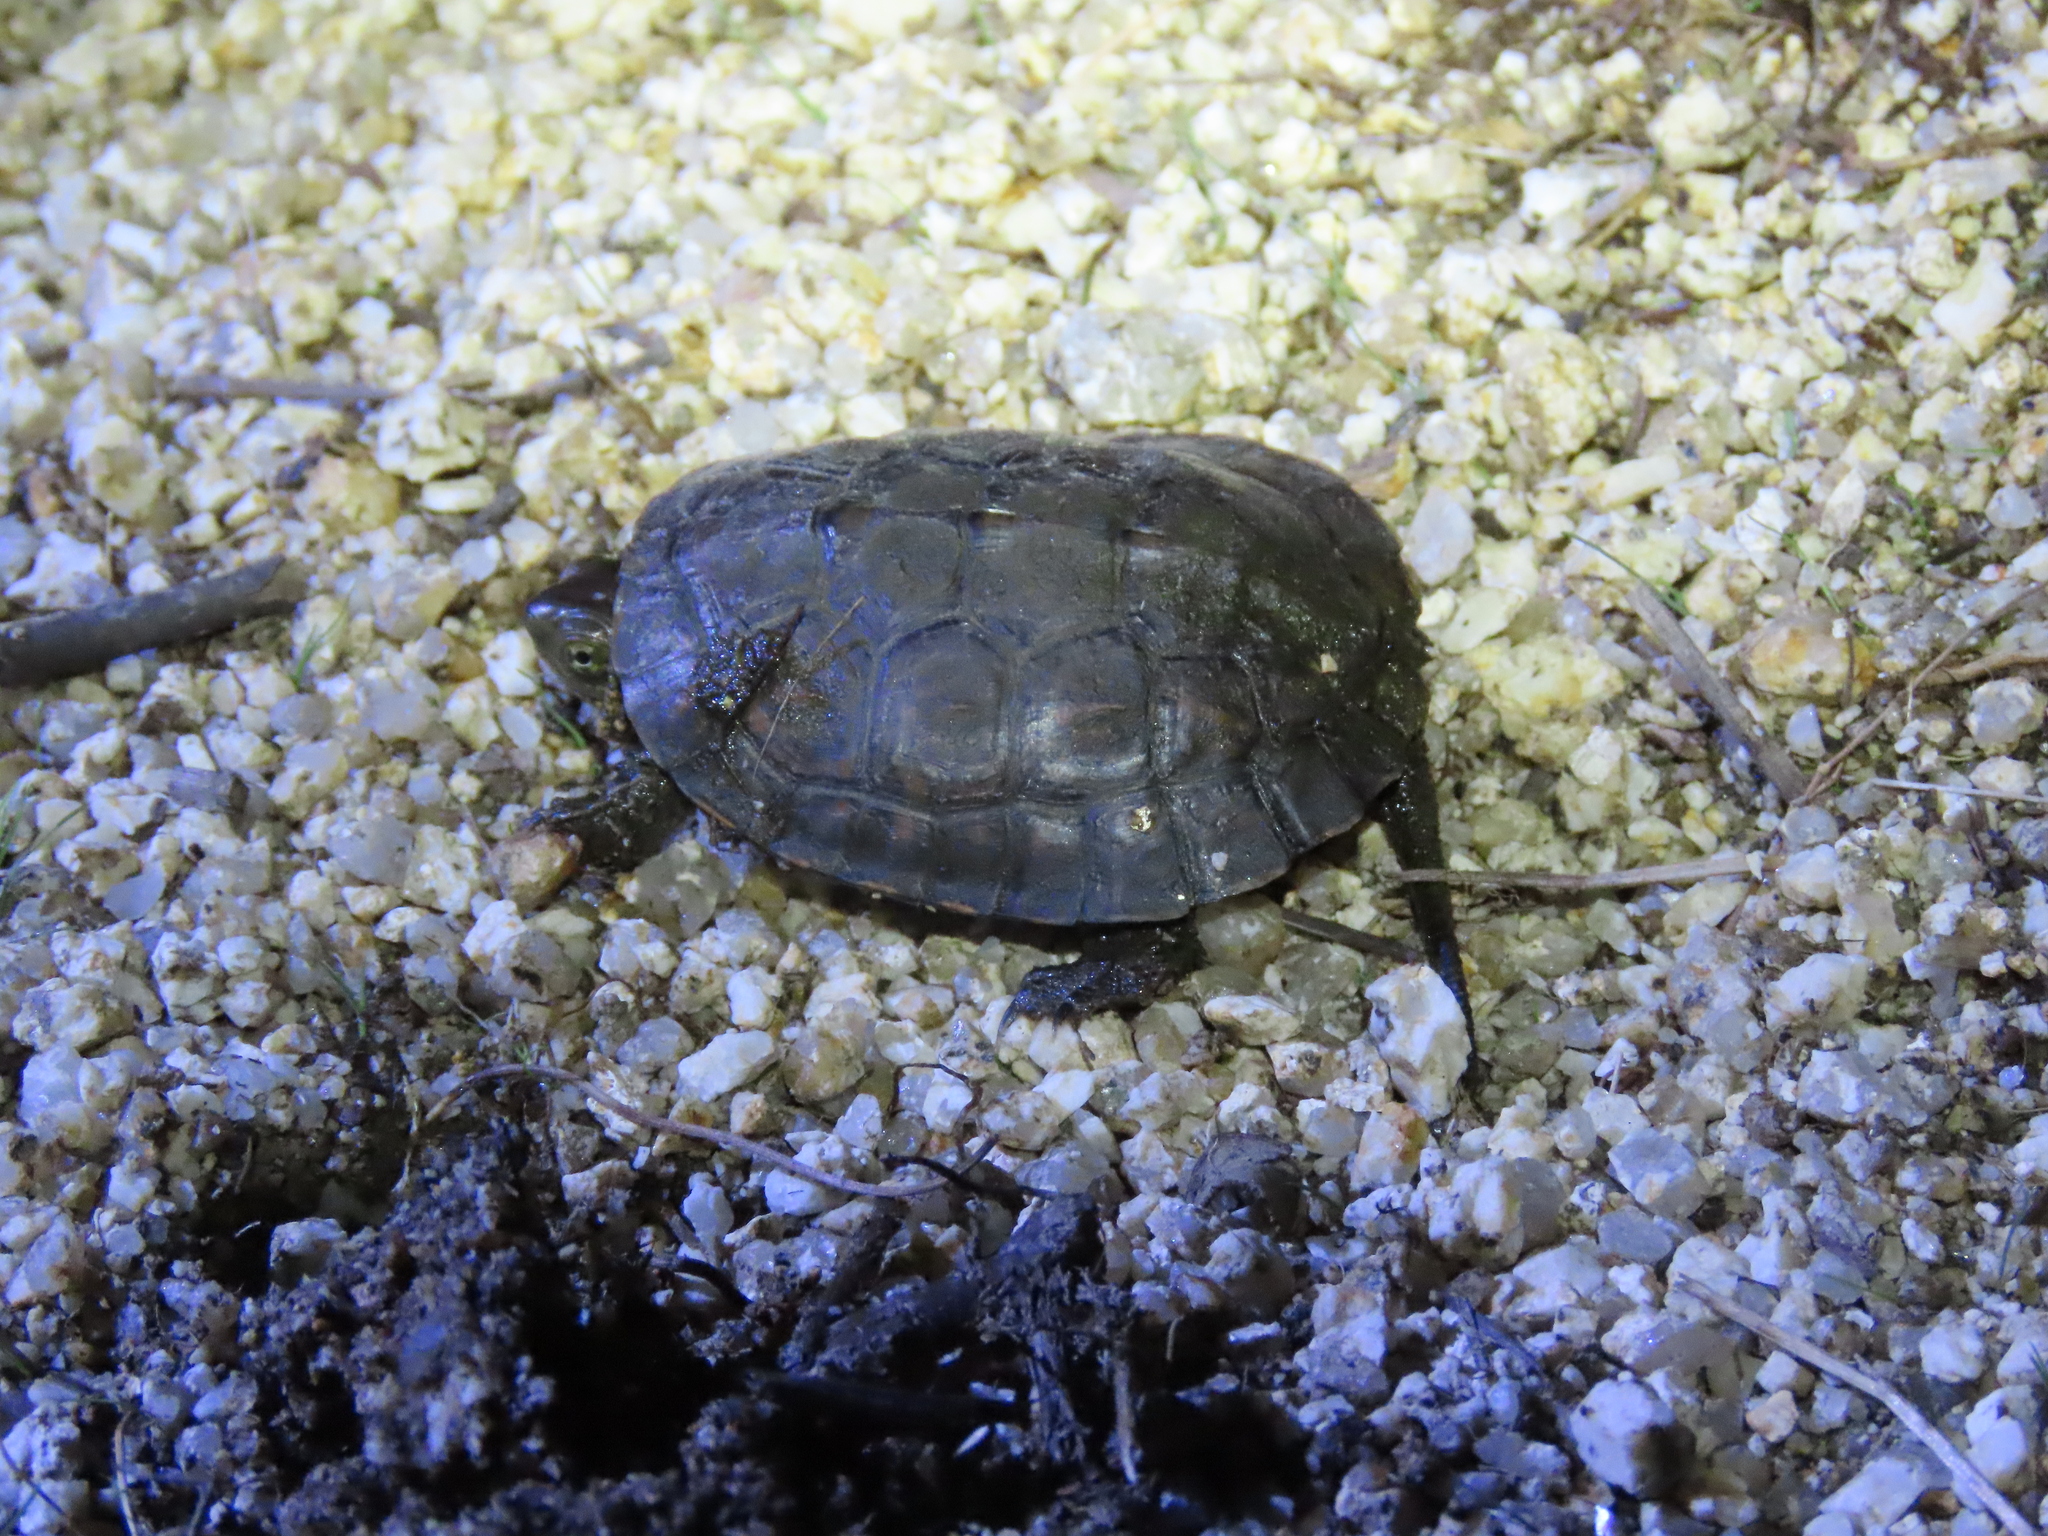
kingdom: Animalia
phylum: Chordata
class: Testudines
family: Geoemydidae
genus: Mauremys
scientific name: Mauremys leprosa
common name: Mediterranean pond turtle
